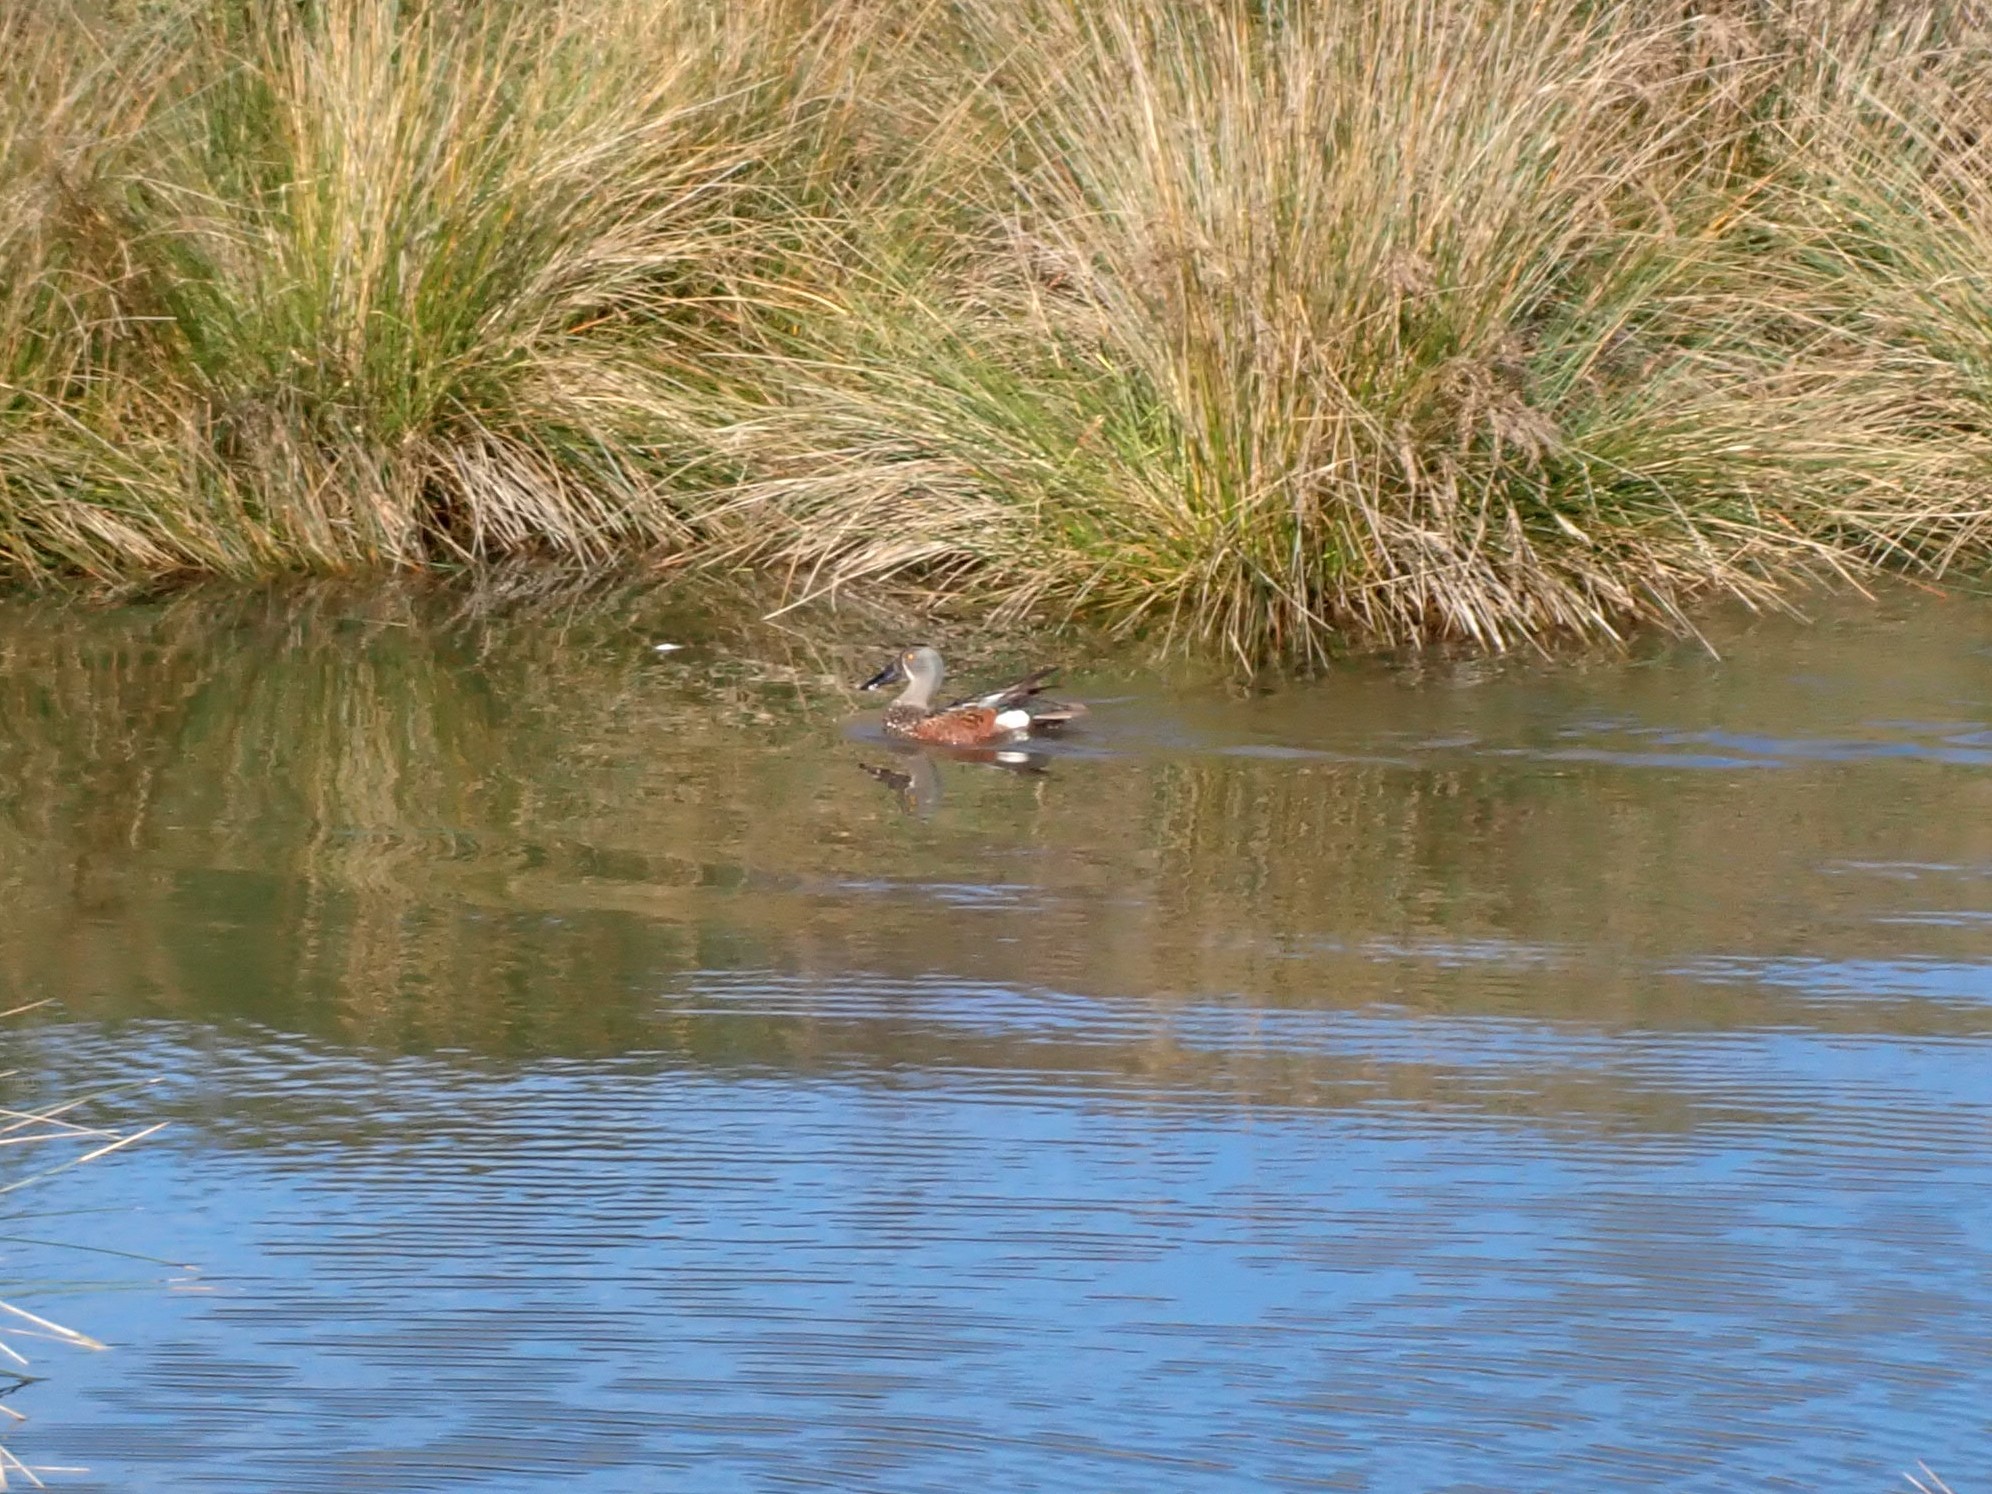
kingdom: Animalia
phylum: Chordata
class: Aves
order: Anseriformes
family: Anatidae
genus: Spatula
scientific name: Spatula rhynchotis
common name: Australian shoveler
